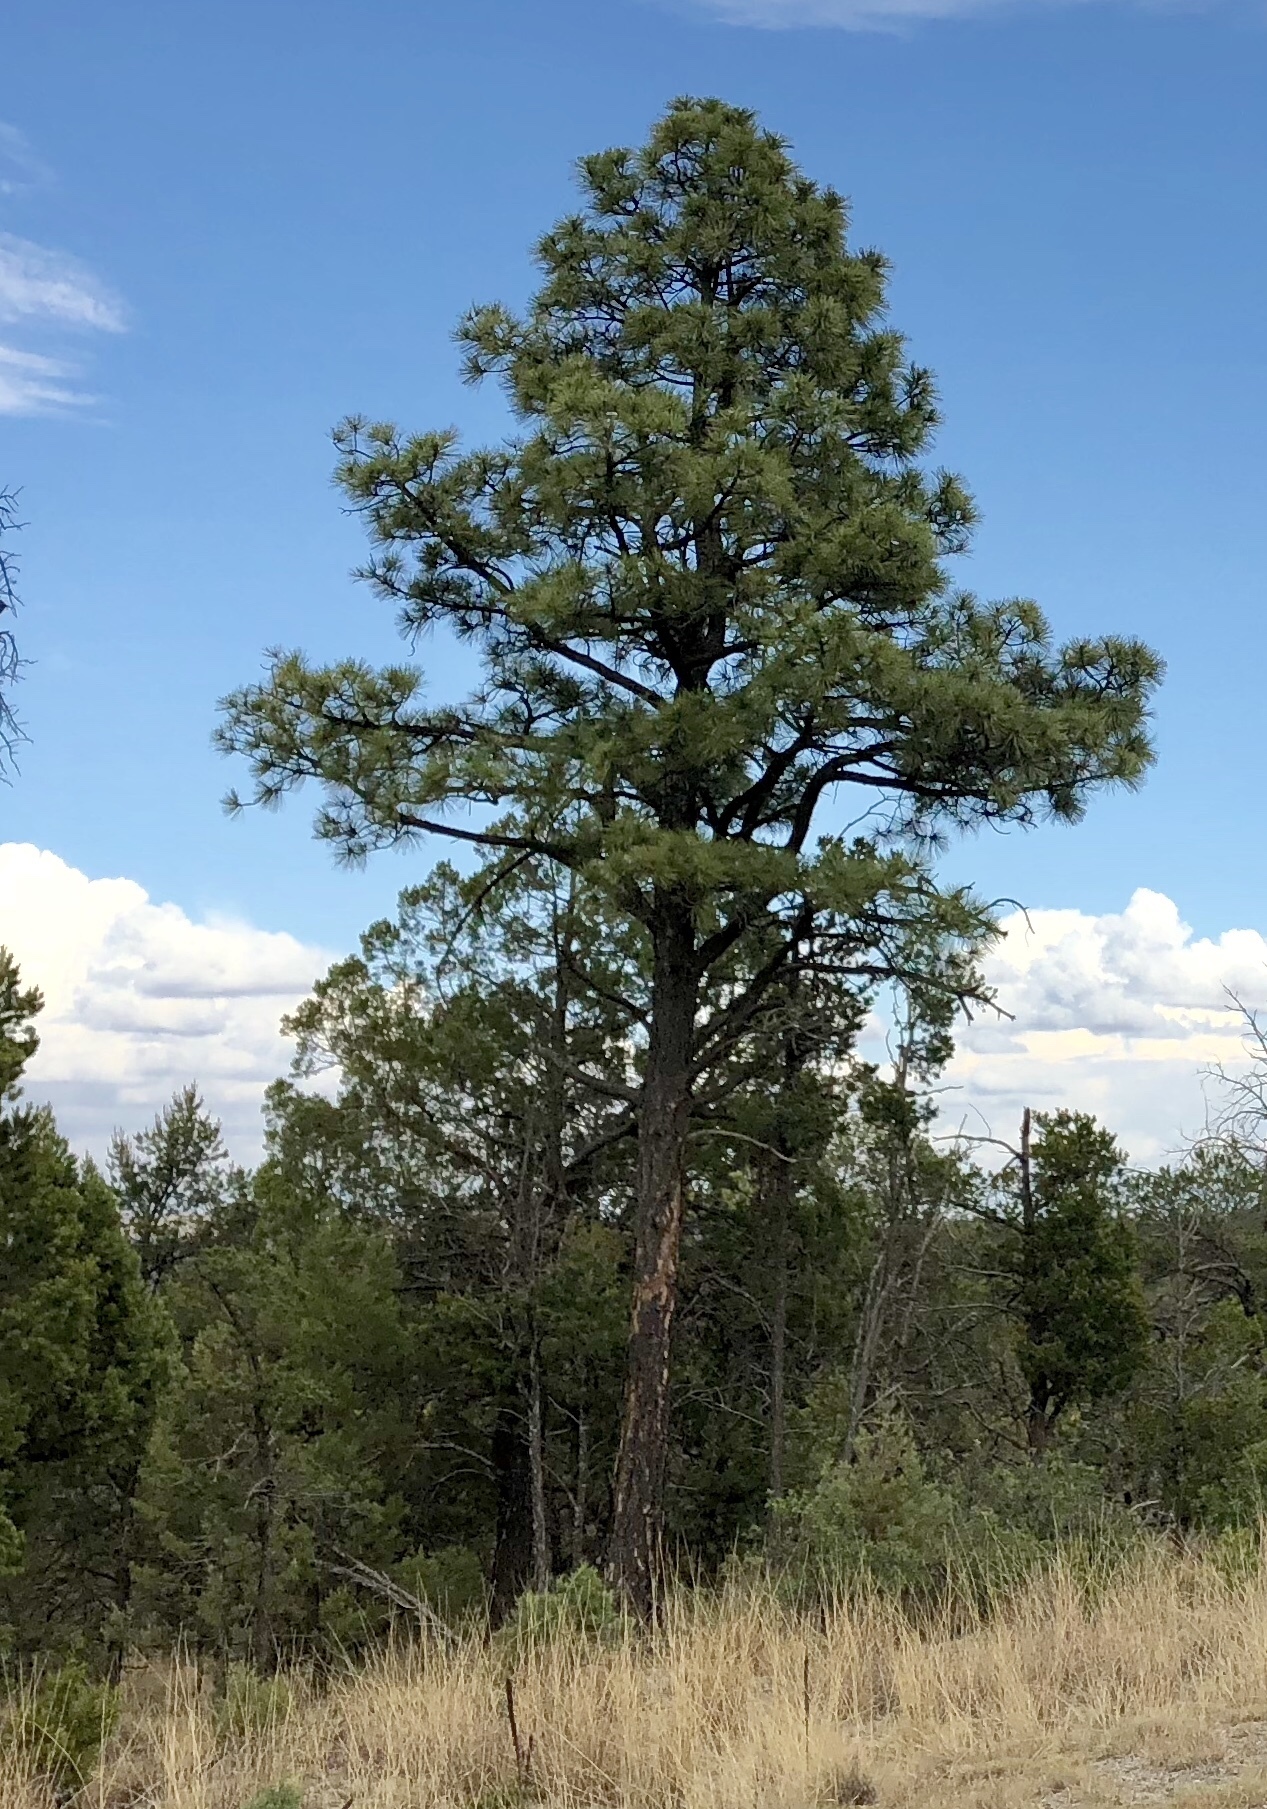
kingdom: Plantae
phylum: Tracheophyta
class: Pinopsida
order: Pinales
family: Pinaceae
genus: Pinus
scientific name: Pinus ponderosa
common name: Western yellow-pine
